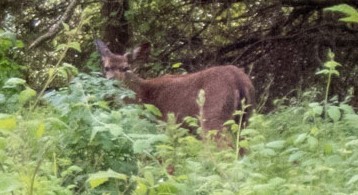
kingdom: Animalia
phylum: Chordata
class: Mammalia
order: Artiodactyla
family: Cervidae
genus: Odocoileus
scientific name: Odocoileus hemionus
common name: Mule deer
